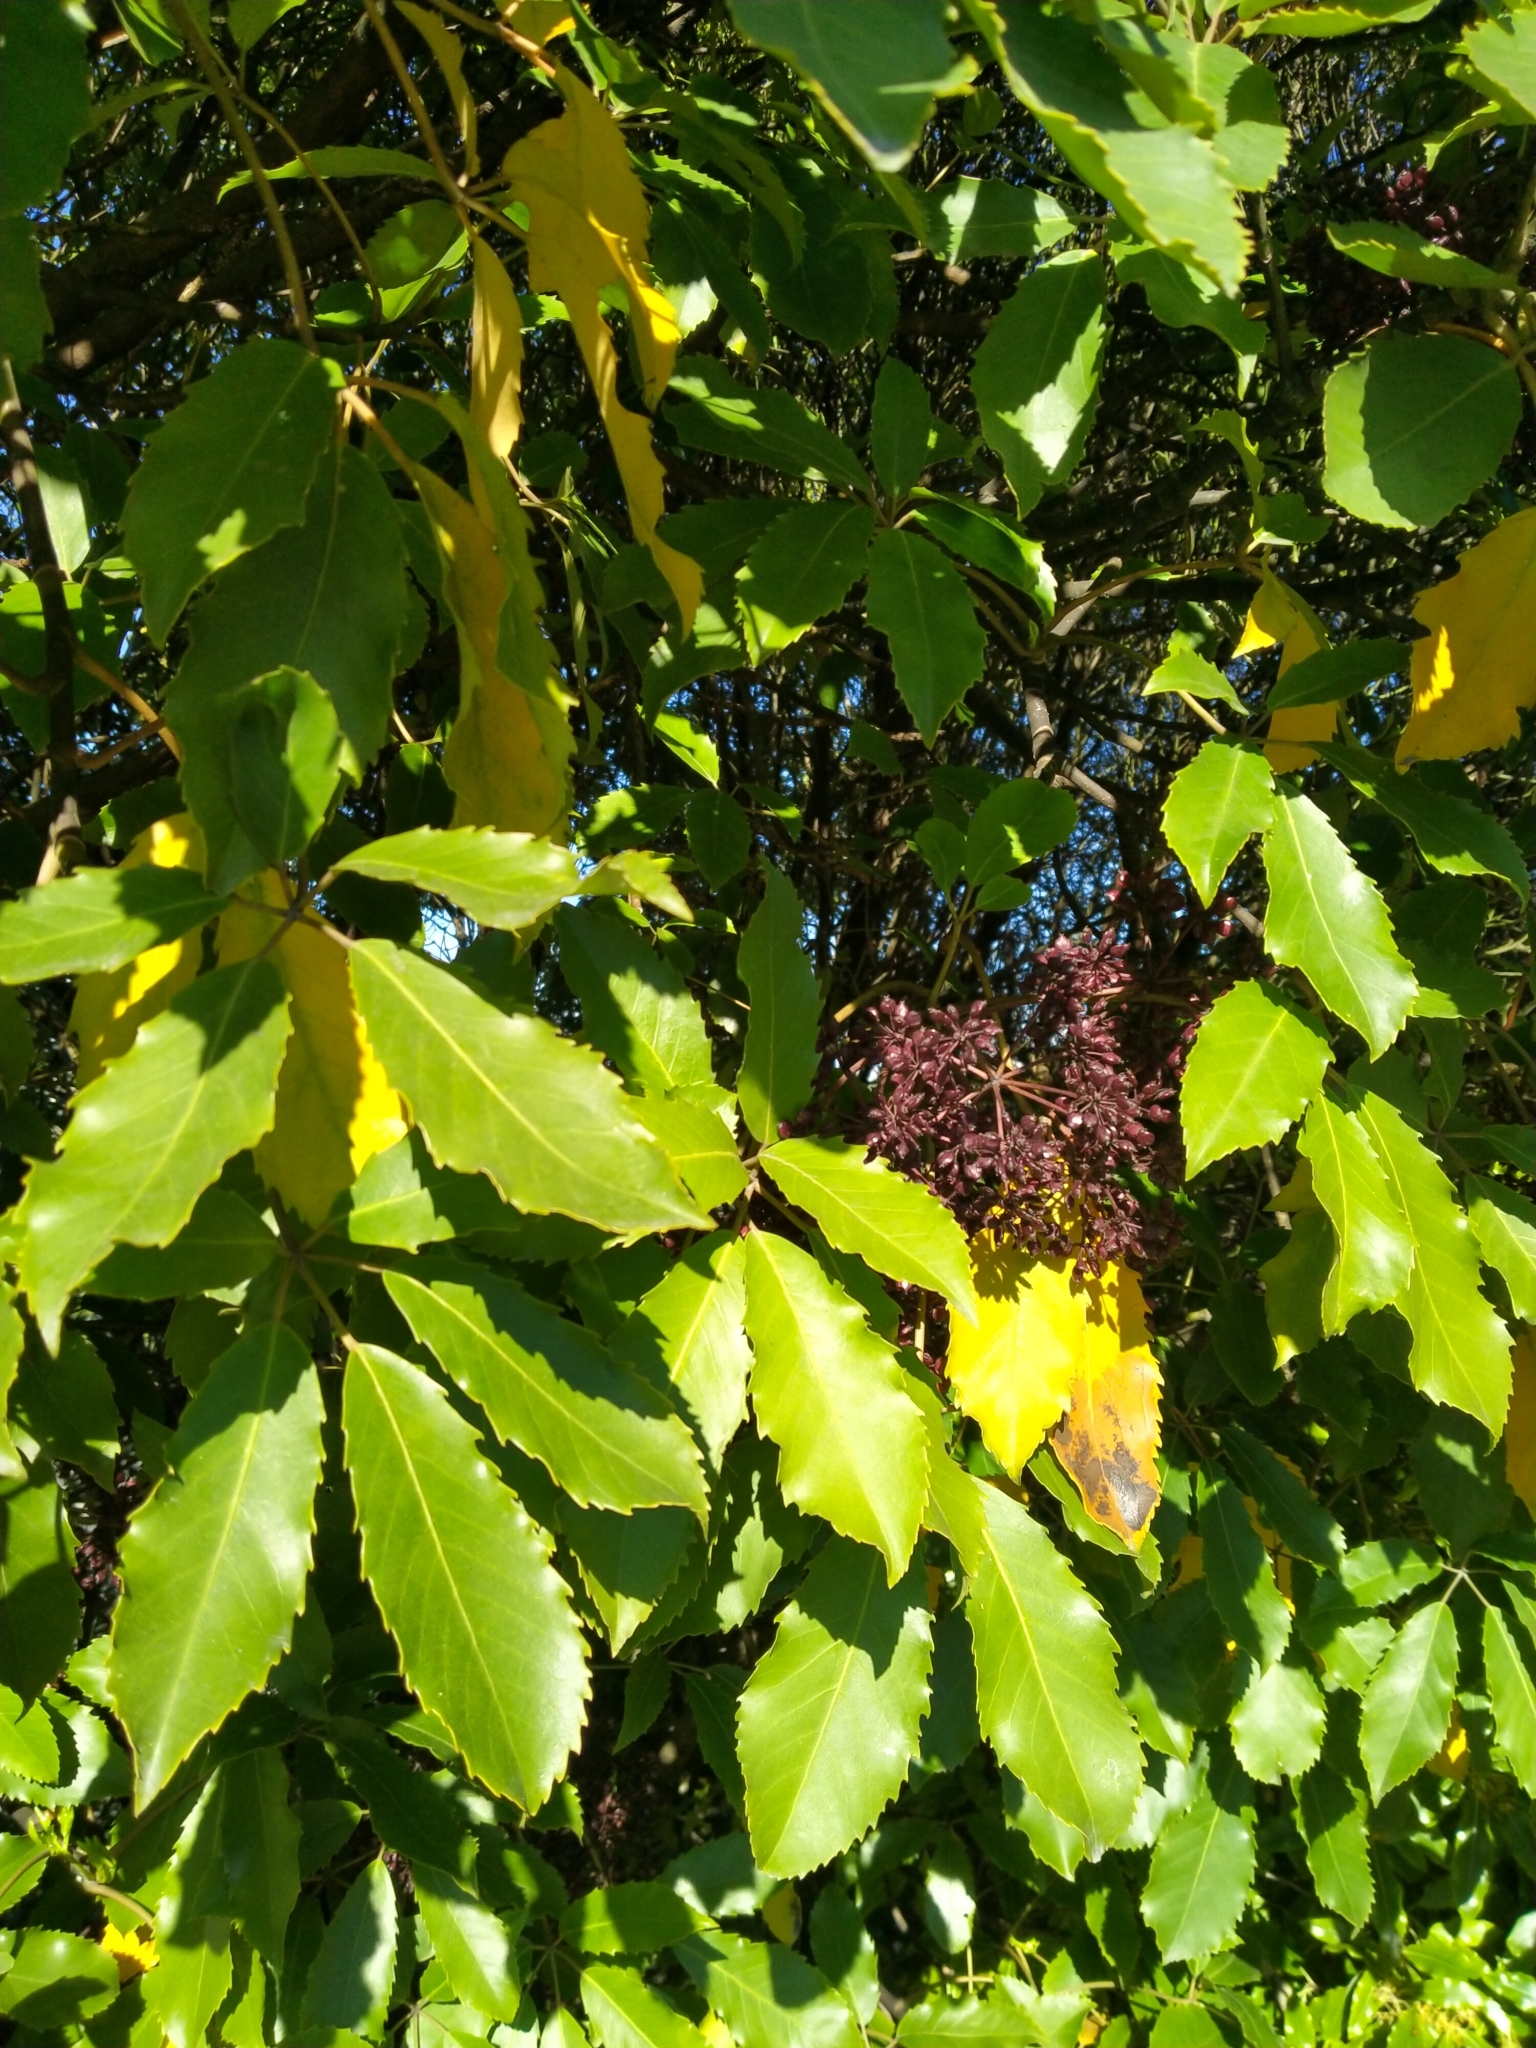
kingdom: Plantae
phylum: Tracheophyta
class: Magnoliopsida
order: Apiales
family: Araliaceae
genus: Neopanax
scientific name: Neopanax arboreus
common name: Five-fingers
